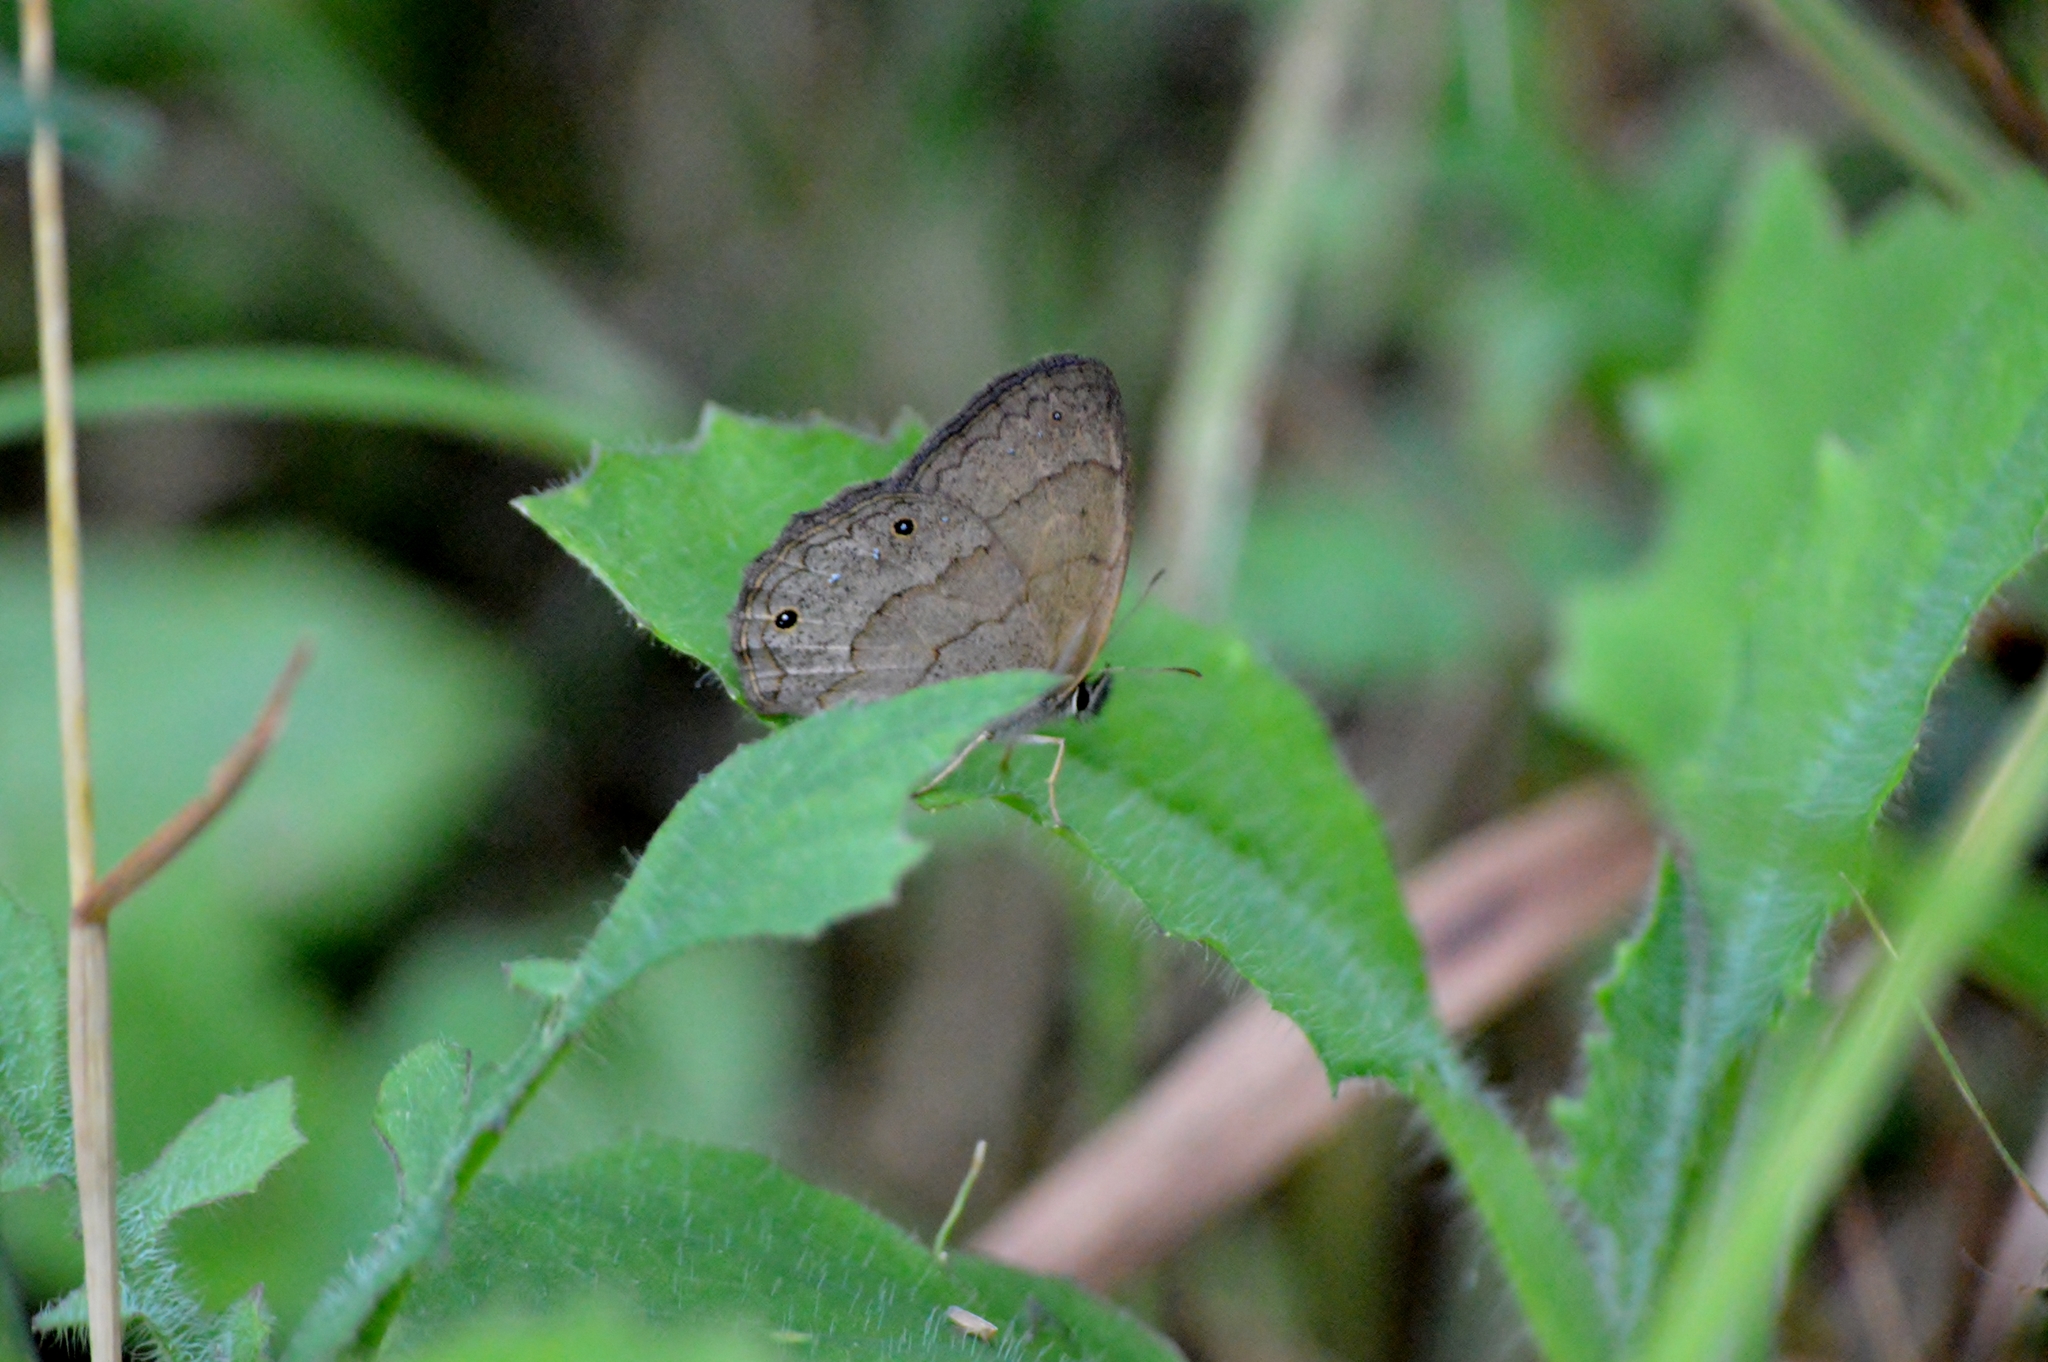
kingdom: Animalia
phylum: Arthropoda
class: Insecta
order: Lepidoptera
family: Nymphalidae
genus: Euptychia
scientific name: Euptychia Cissia eous
